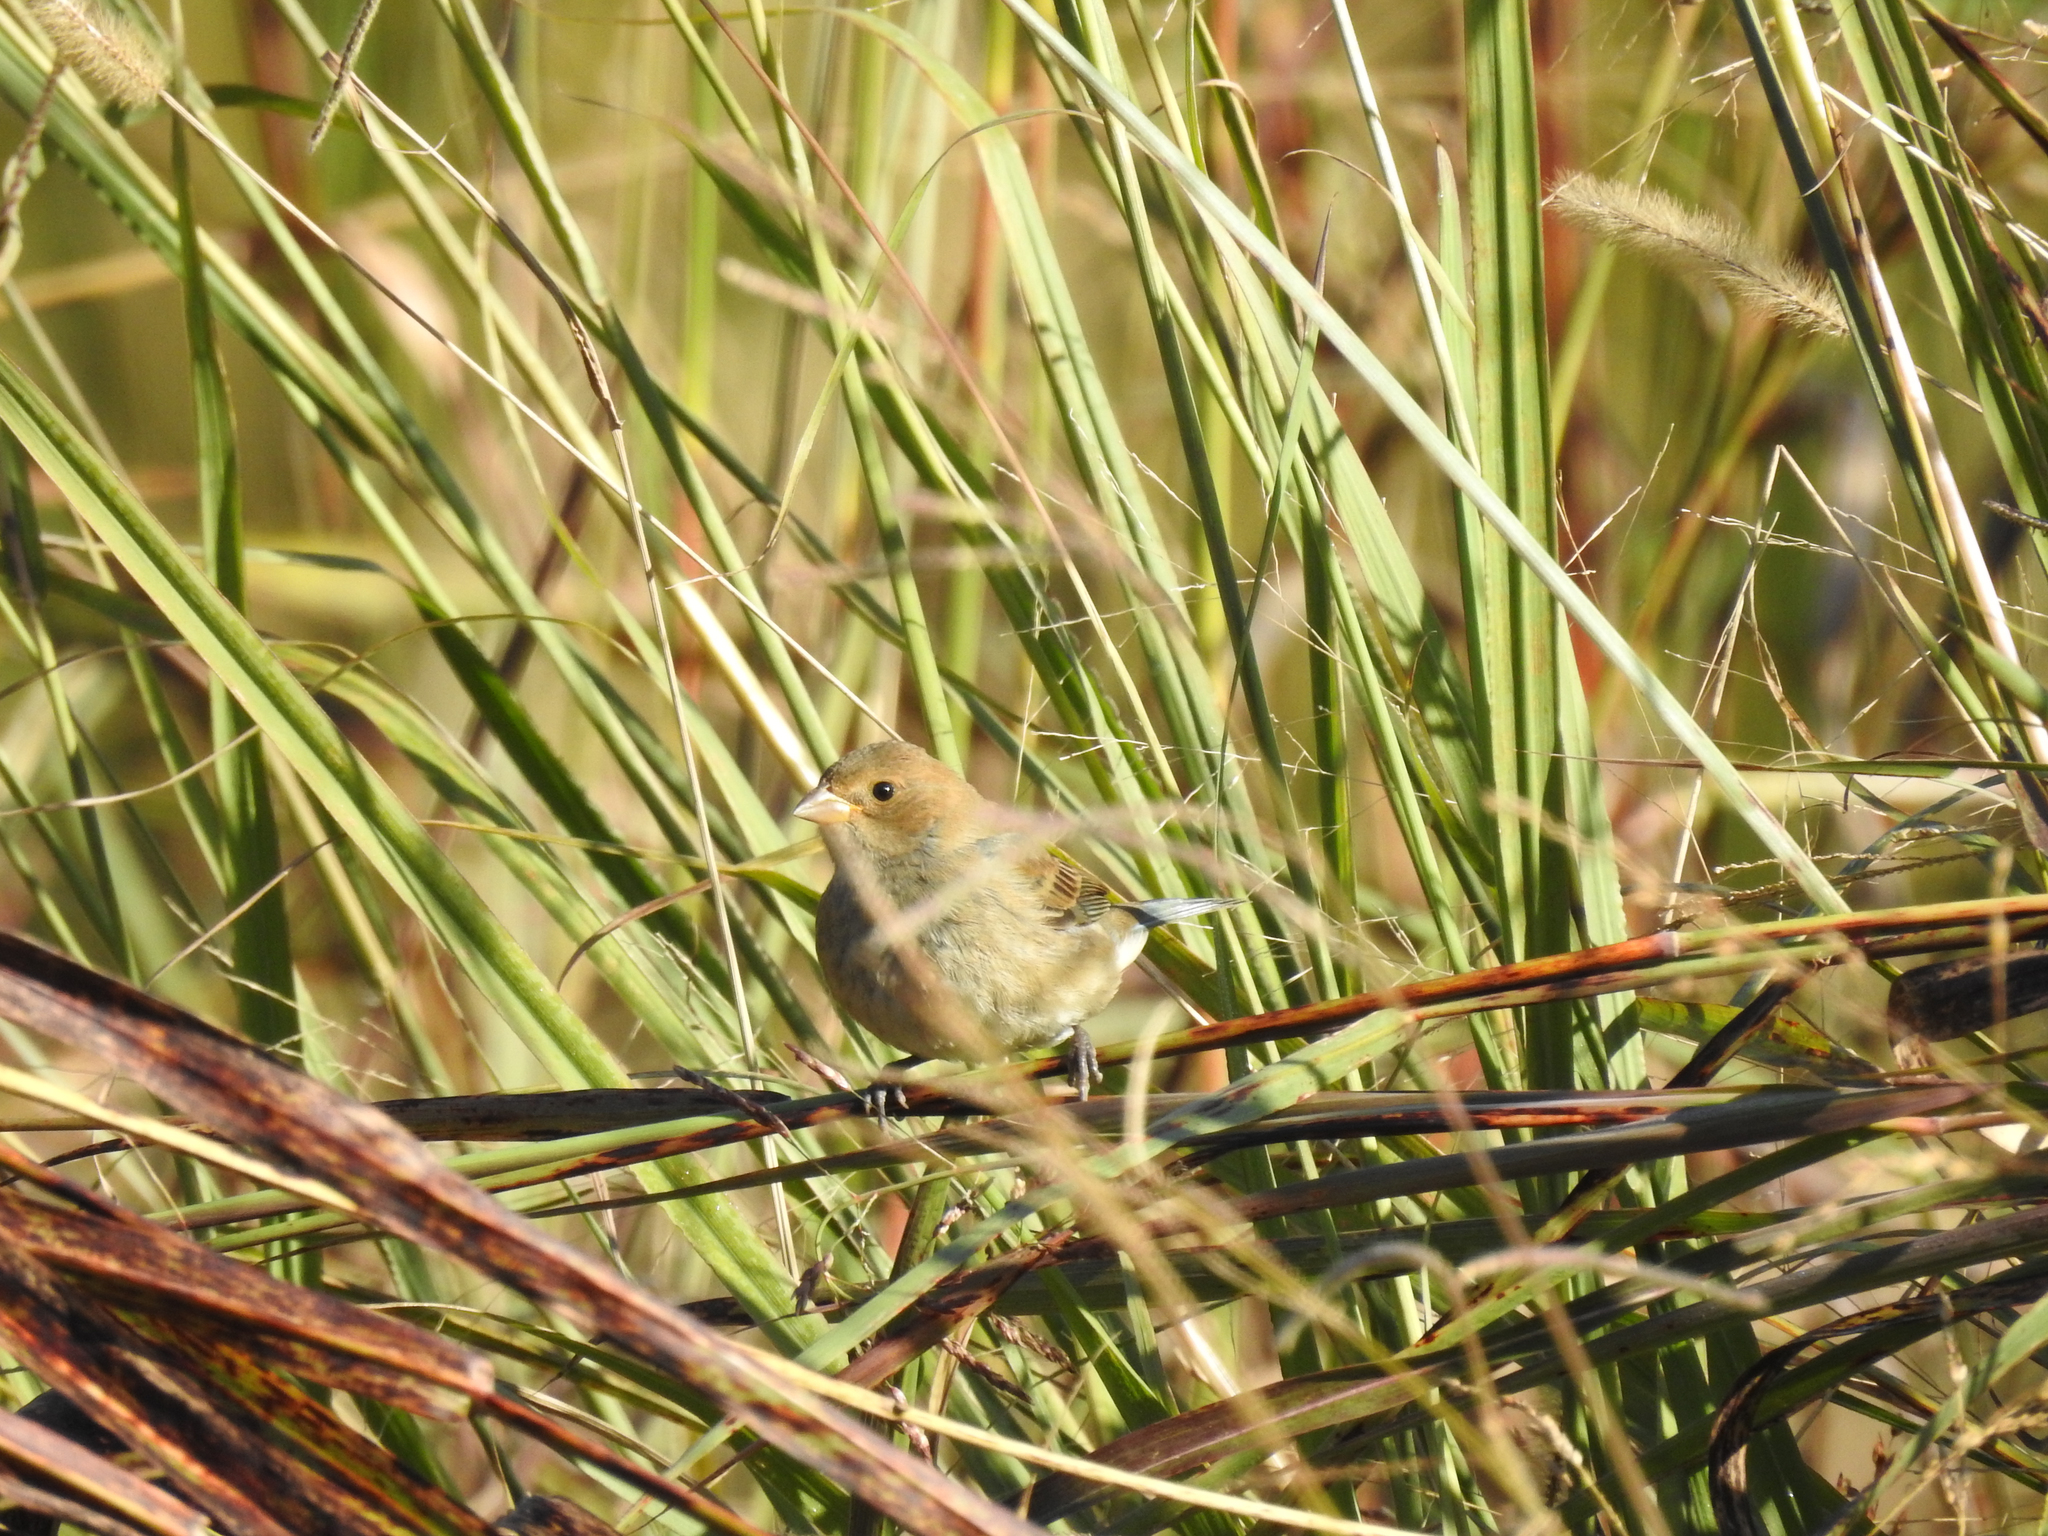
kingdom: Animalia
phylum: Chordata
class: Aves
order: Passeriformes
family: Cardinalidae
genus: Passerina
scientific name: Passerina cyanea
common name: Indigo bunting
